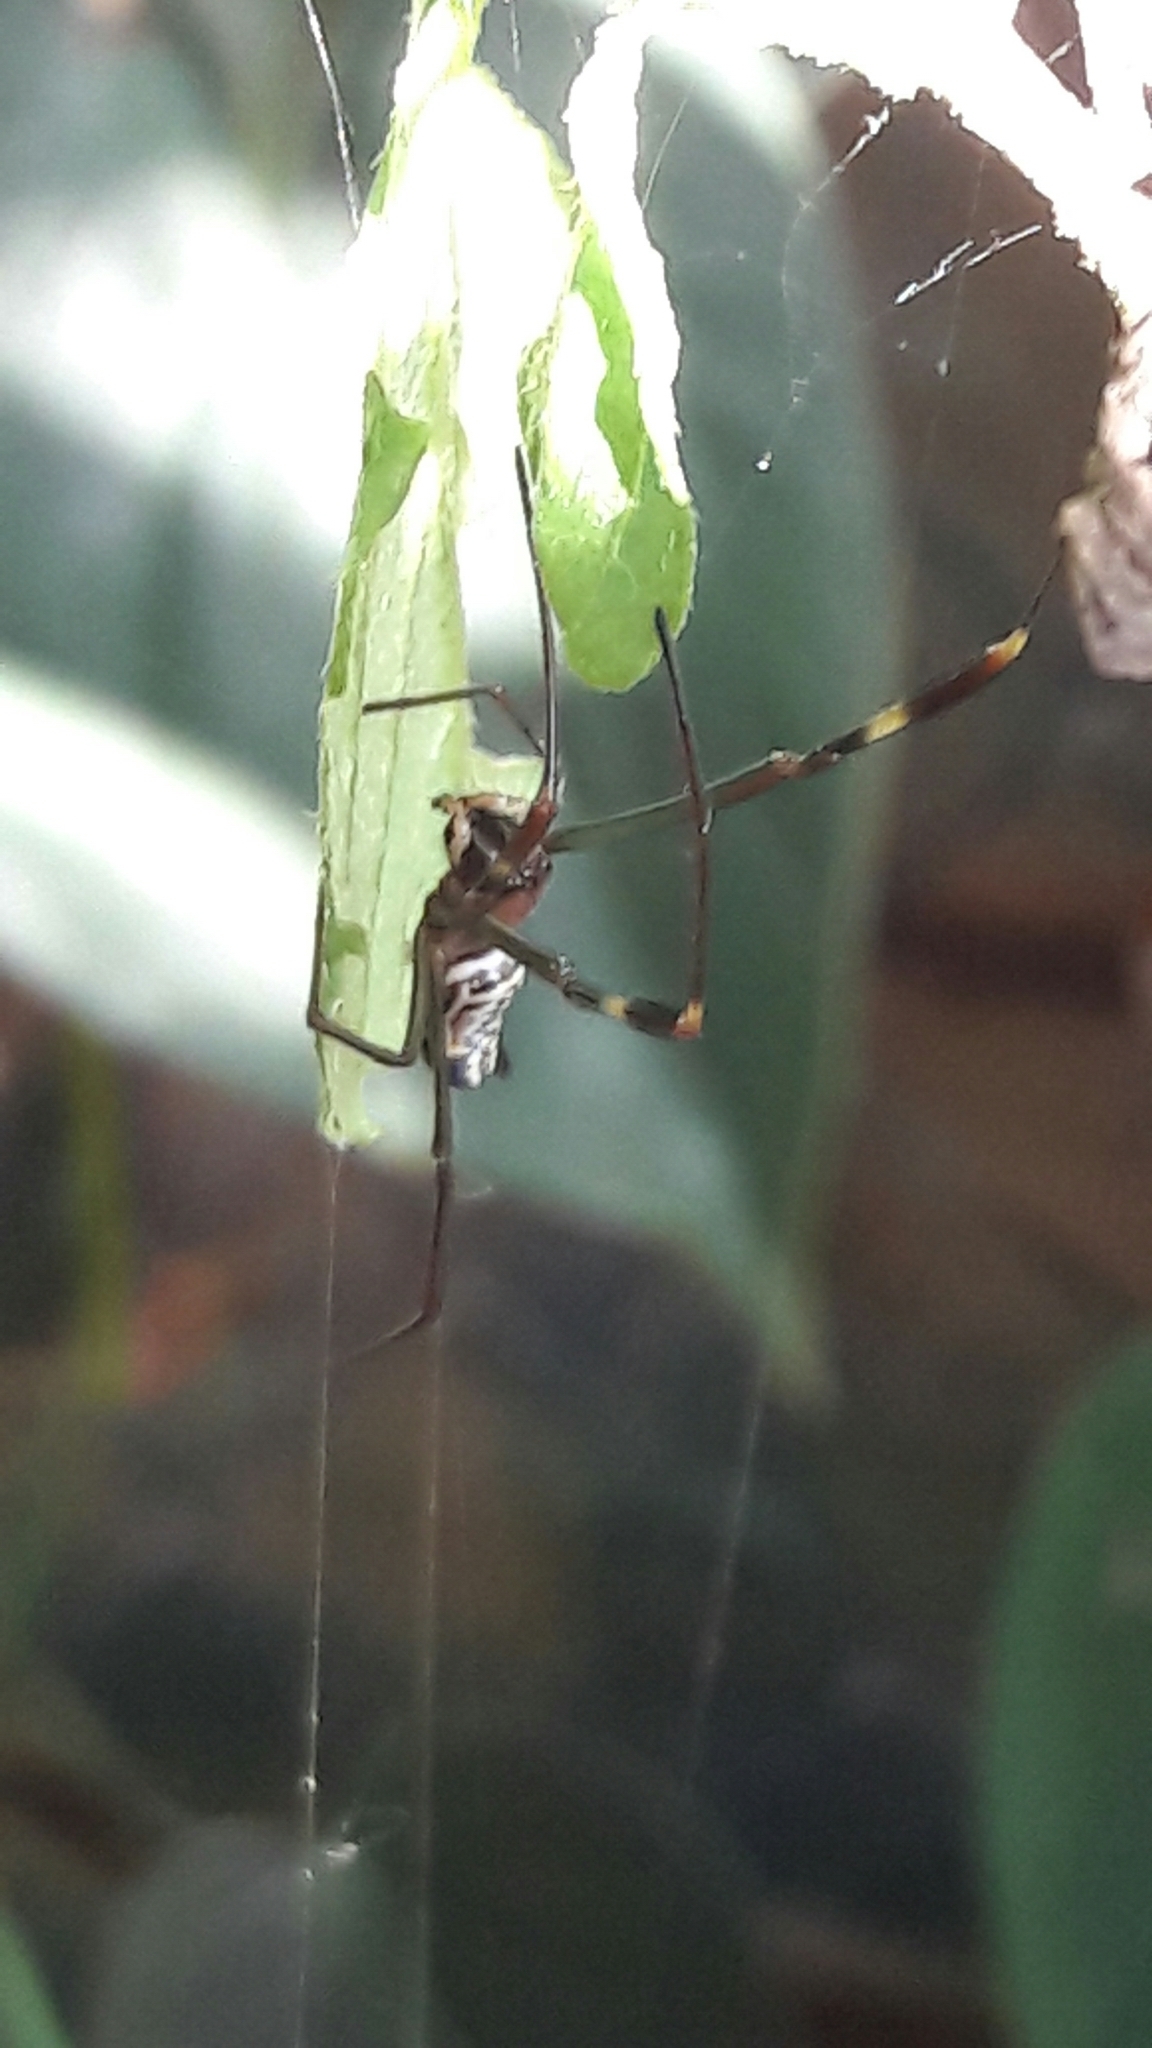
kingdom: Animalia
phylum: Arthropoda
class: Arachnida
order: Araneae
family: Araneidae
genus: Trichonephila
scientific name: Trichonephila clavipes
